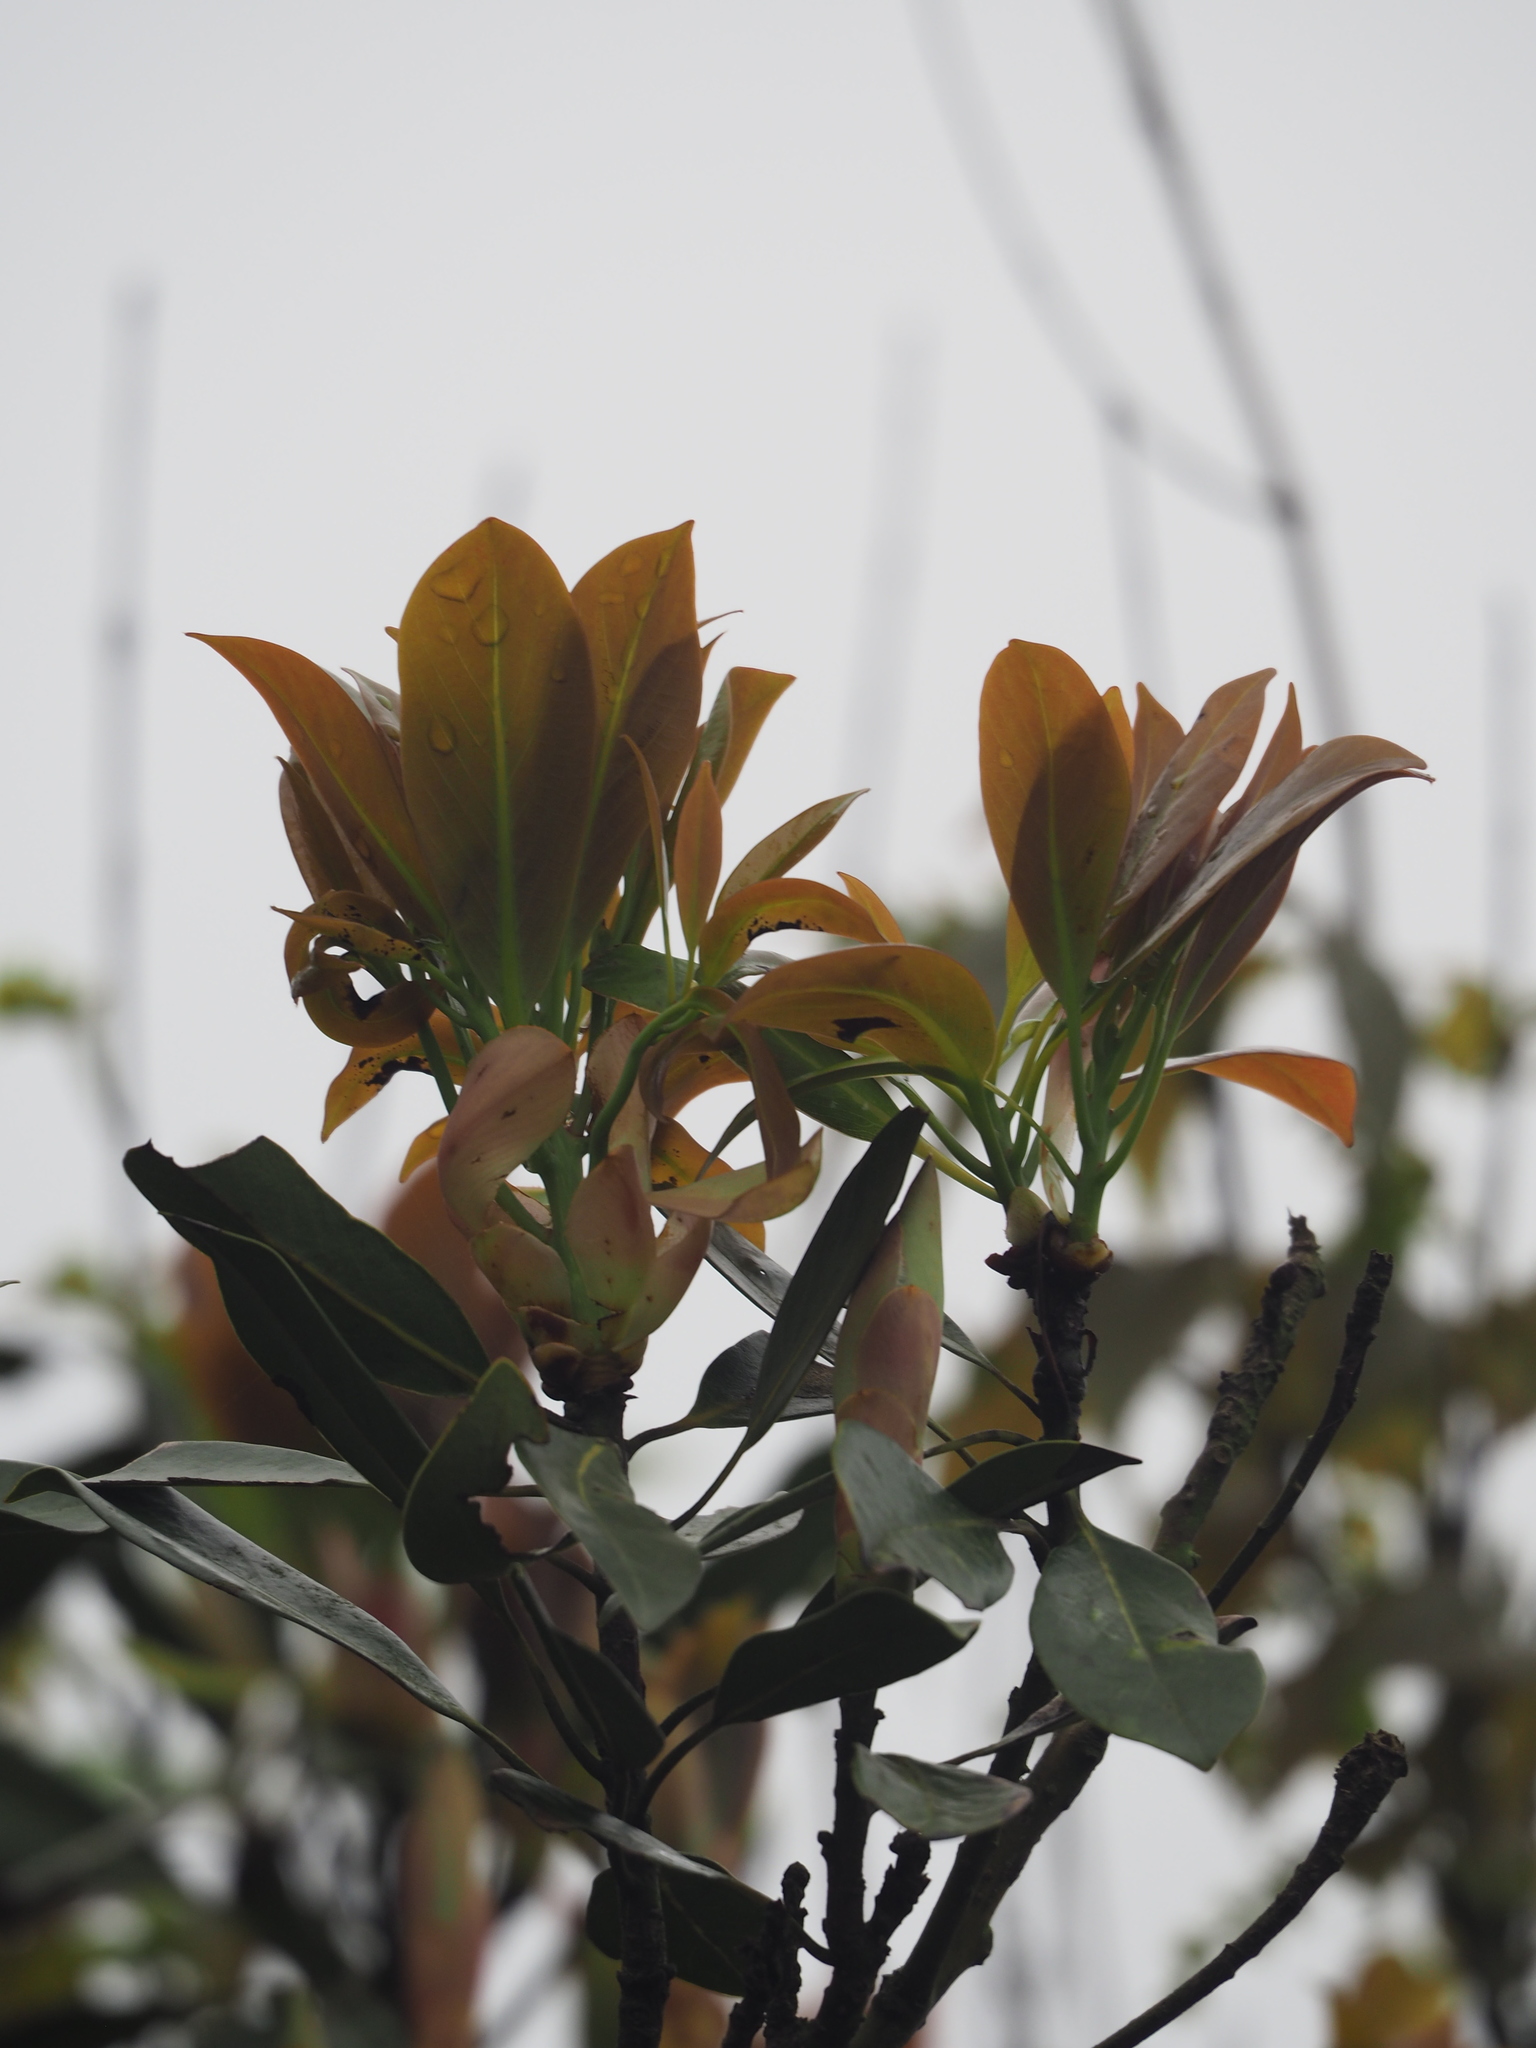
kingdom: Plantae
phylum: Tracheophyta
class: Magnoliopsida
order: Laurales
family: Lauraceae
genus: Machilus
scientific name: Machilus thunbergii
